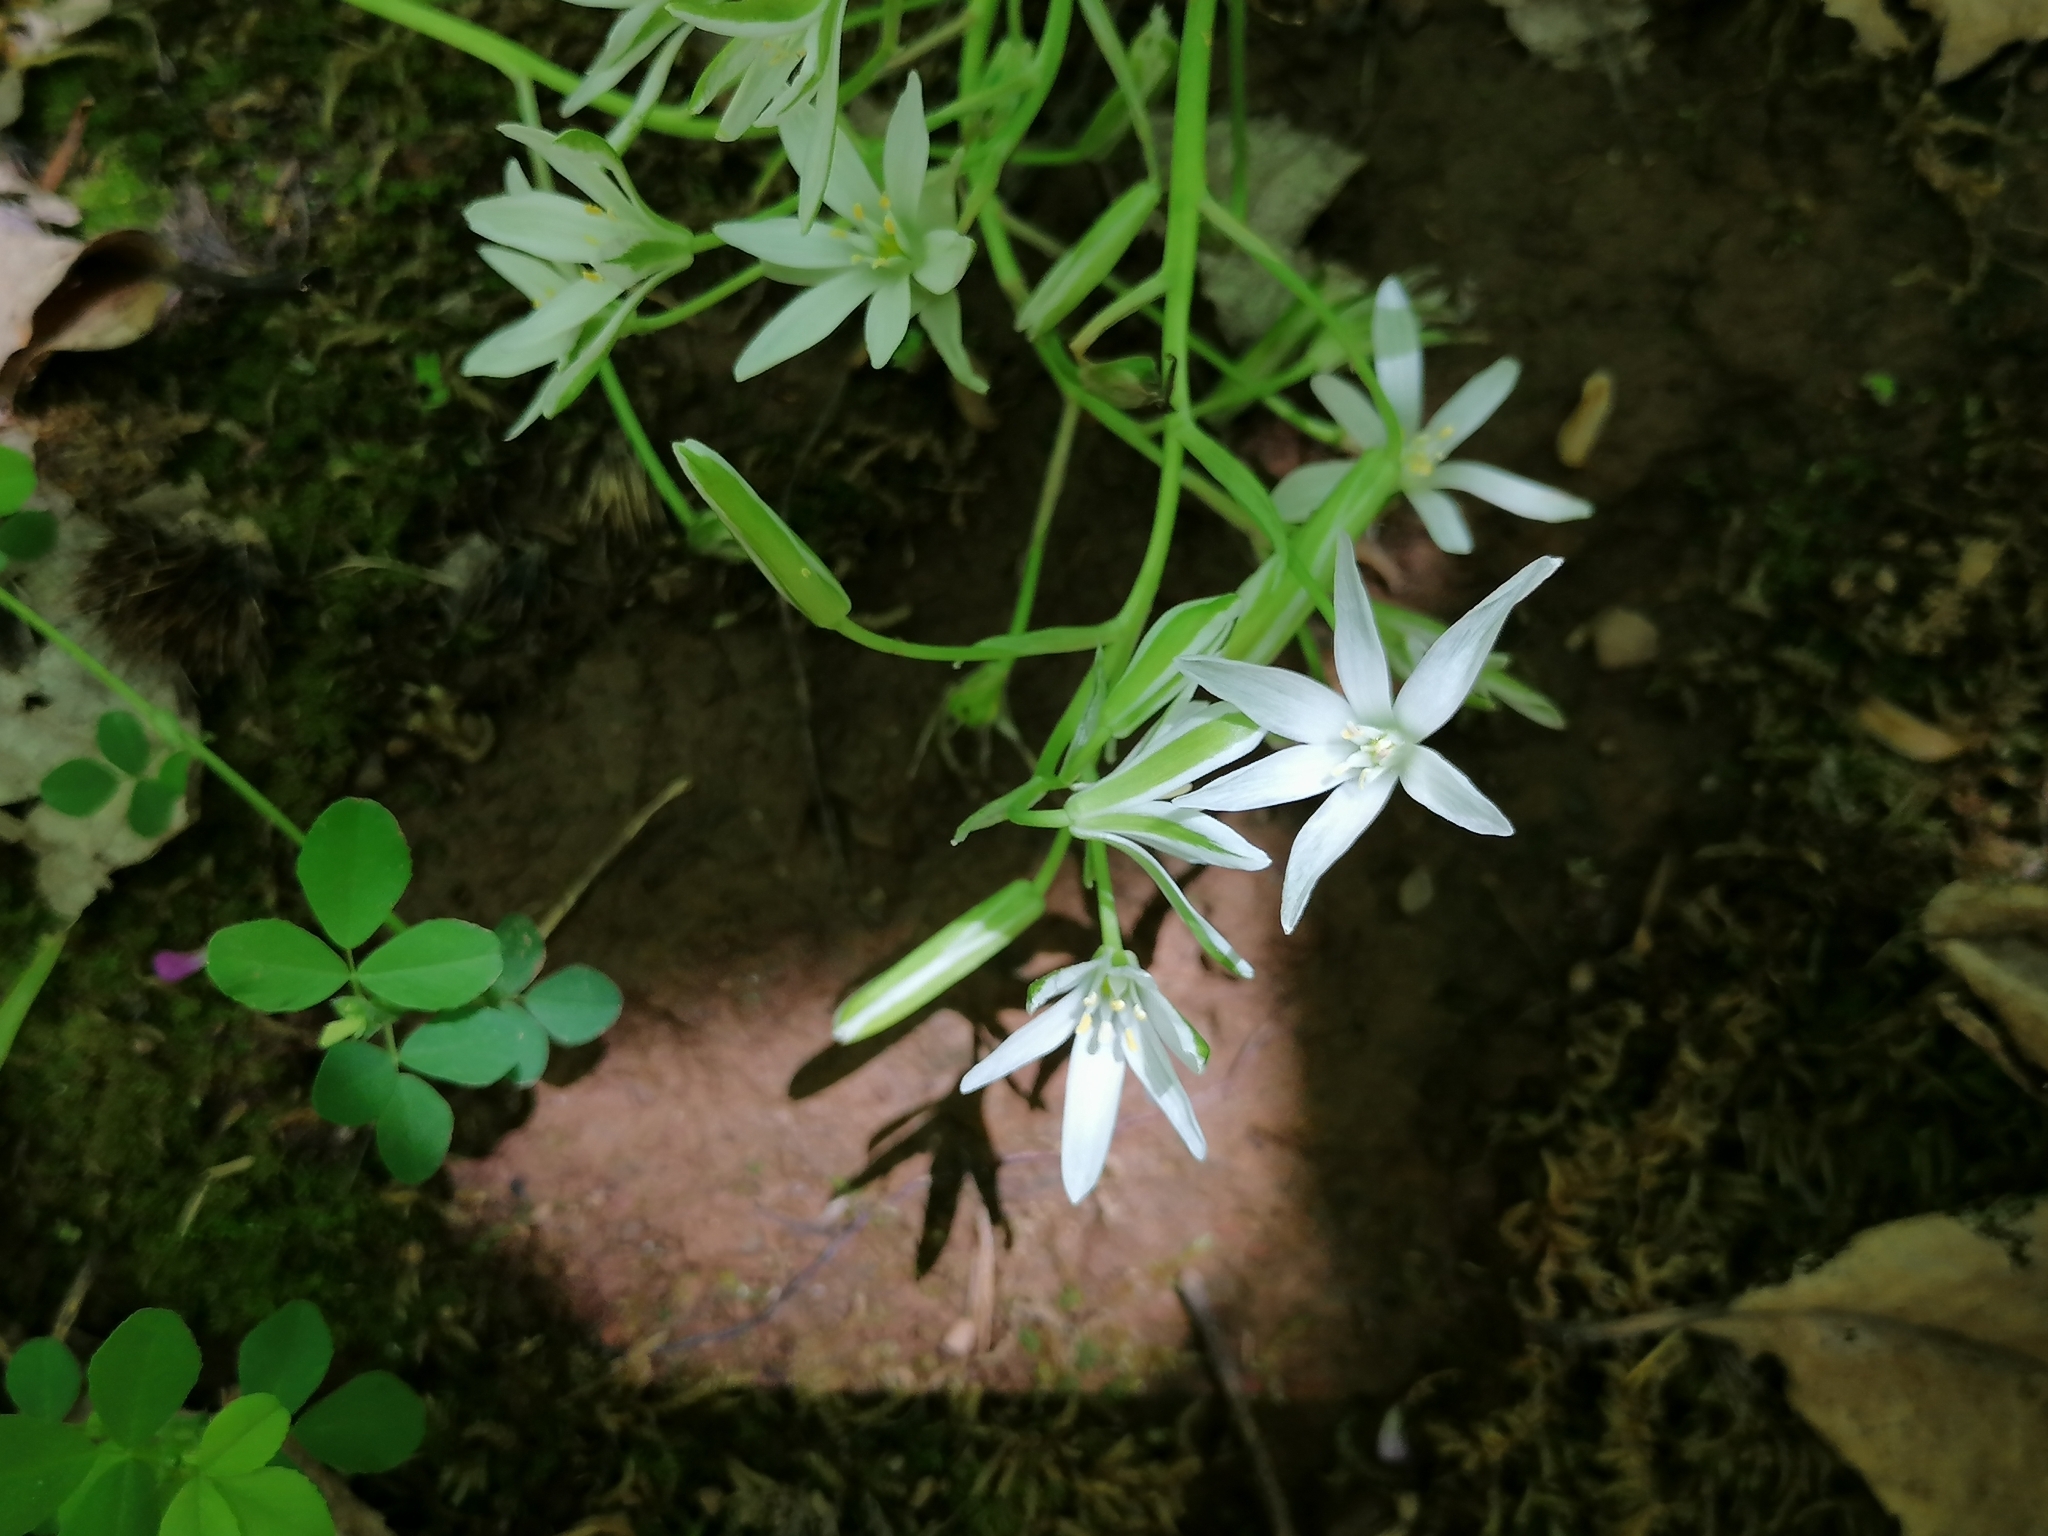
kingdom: Plantae
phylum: Tracheophyta
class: Liliopsida
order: Asparagales
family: Asparagaceae
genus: Ornithogalum
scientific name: Ornithogalum umbellatum
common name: Garden star-of-bethlehem
